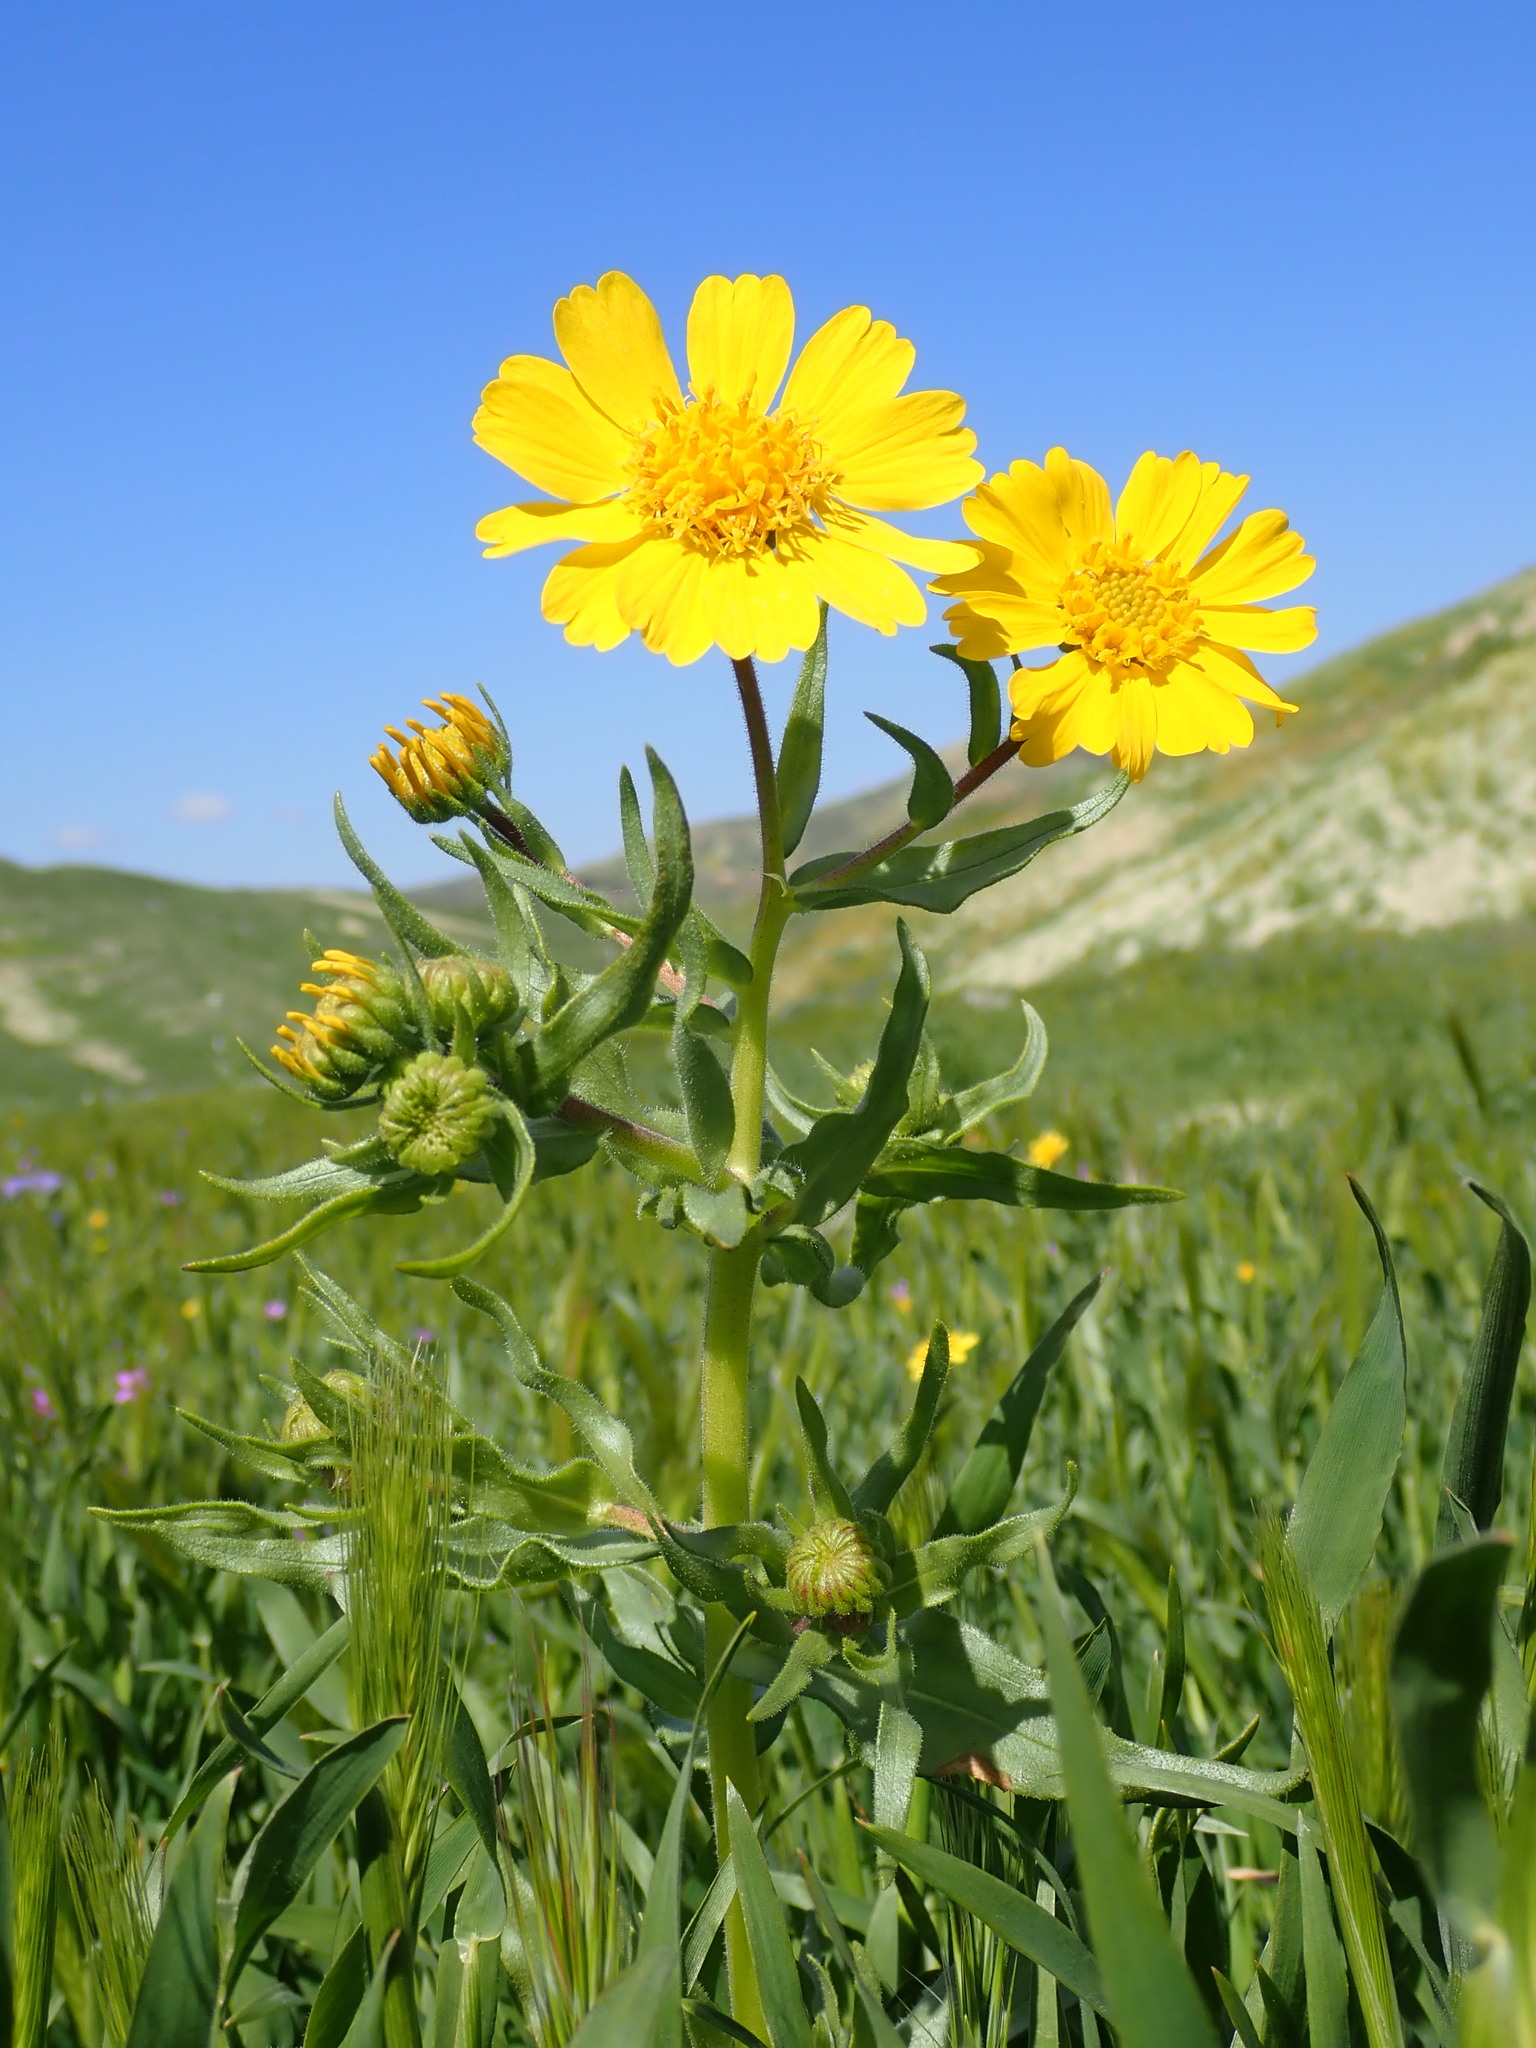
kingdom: Plantae
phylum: Tracheophyta
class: Magnoliopsida
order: Asterales
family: Asteraceae
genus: Madia
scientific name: Madia radiata
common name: Showy madia
